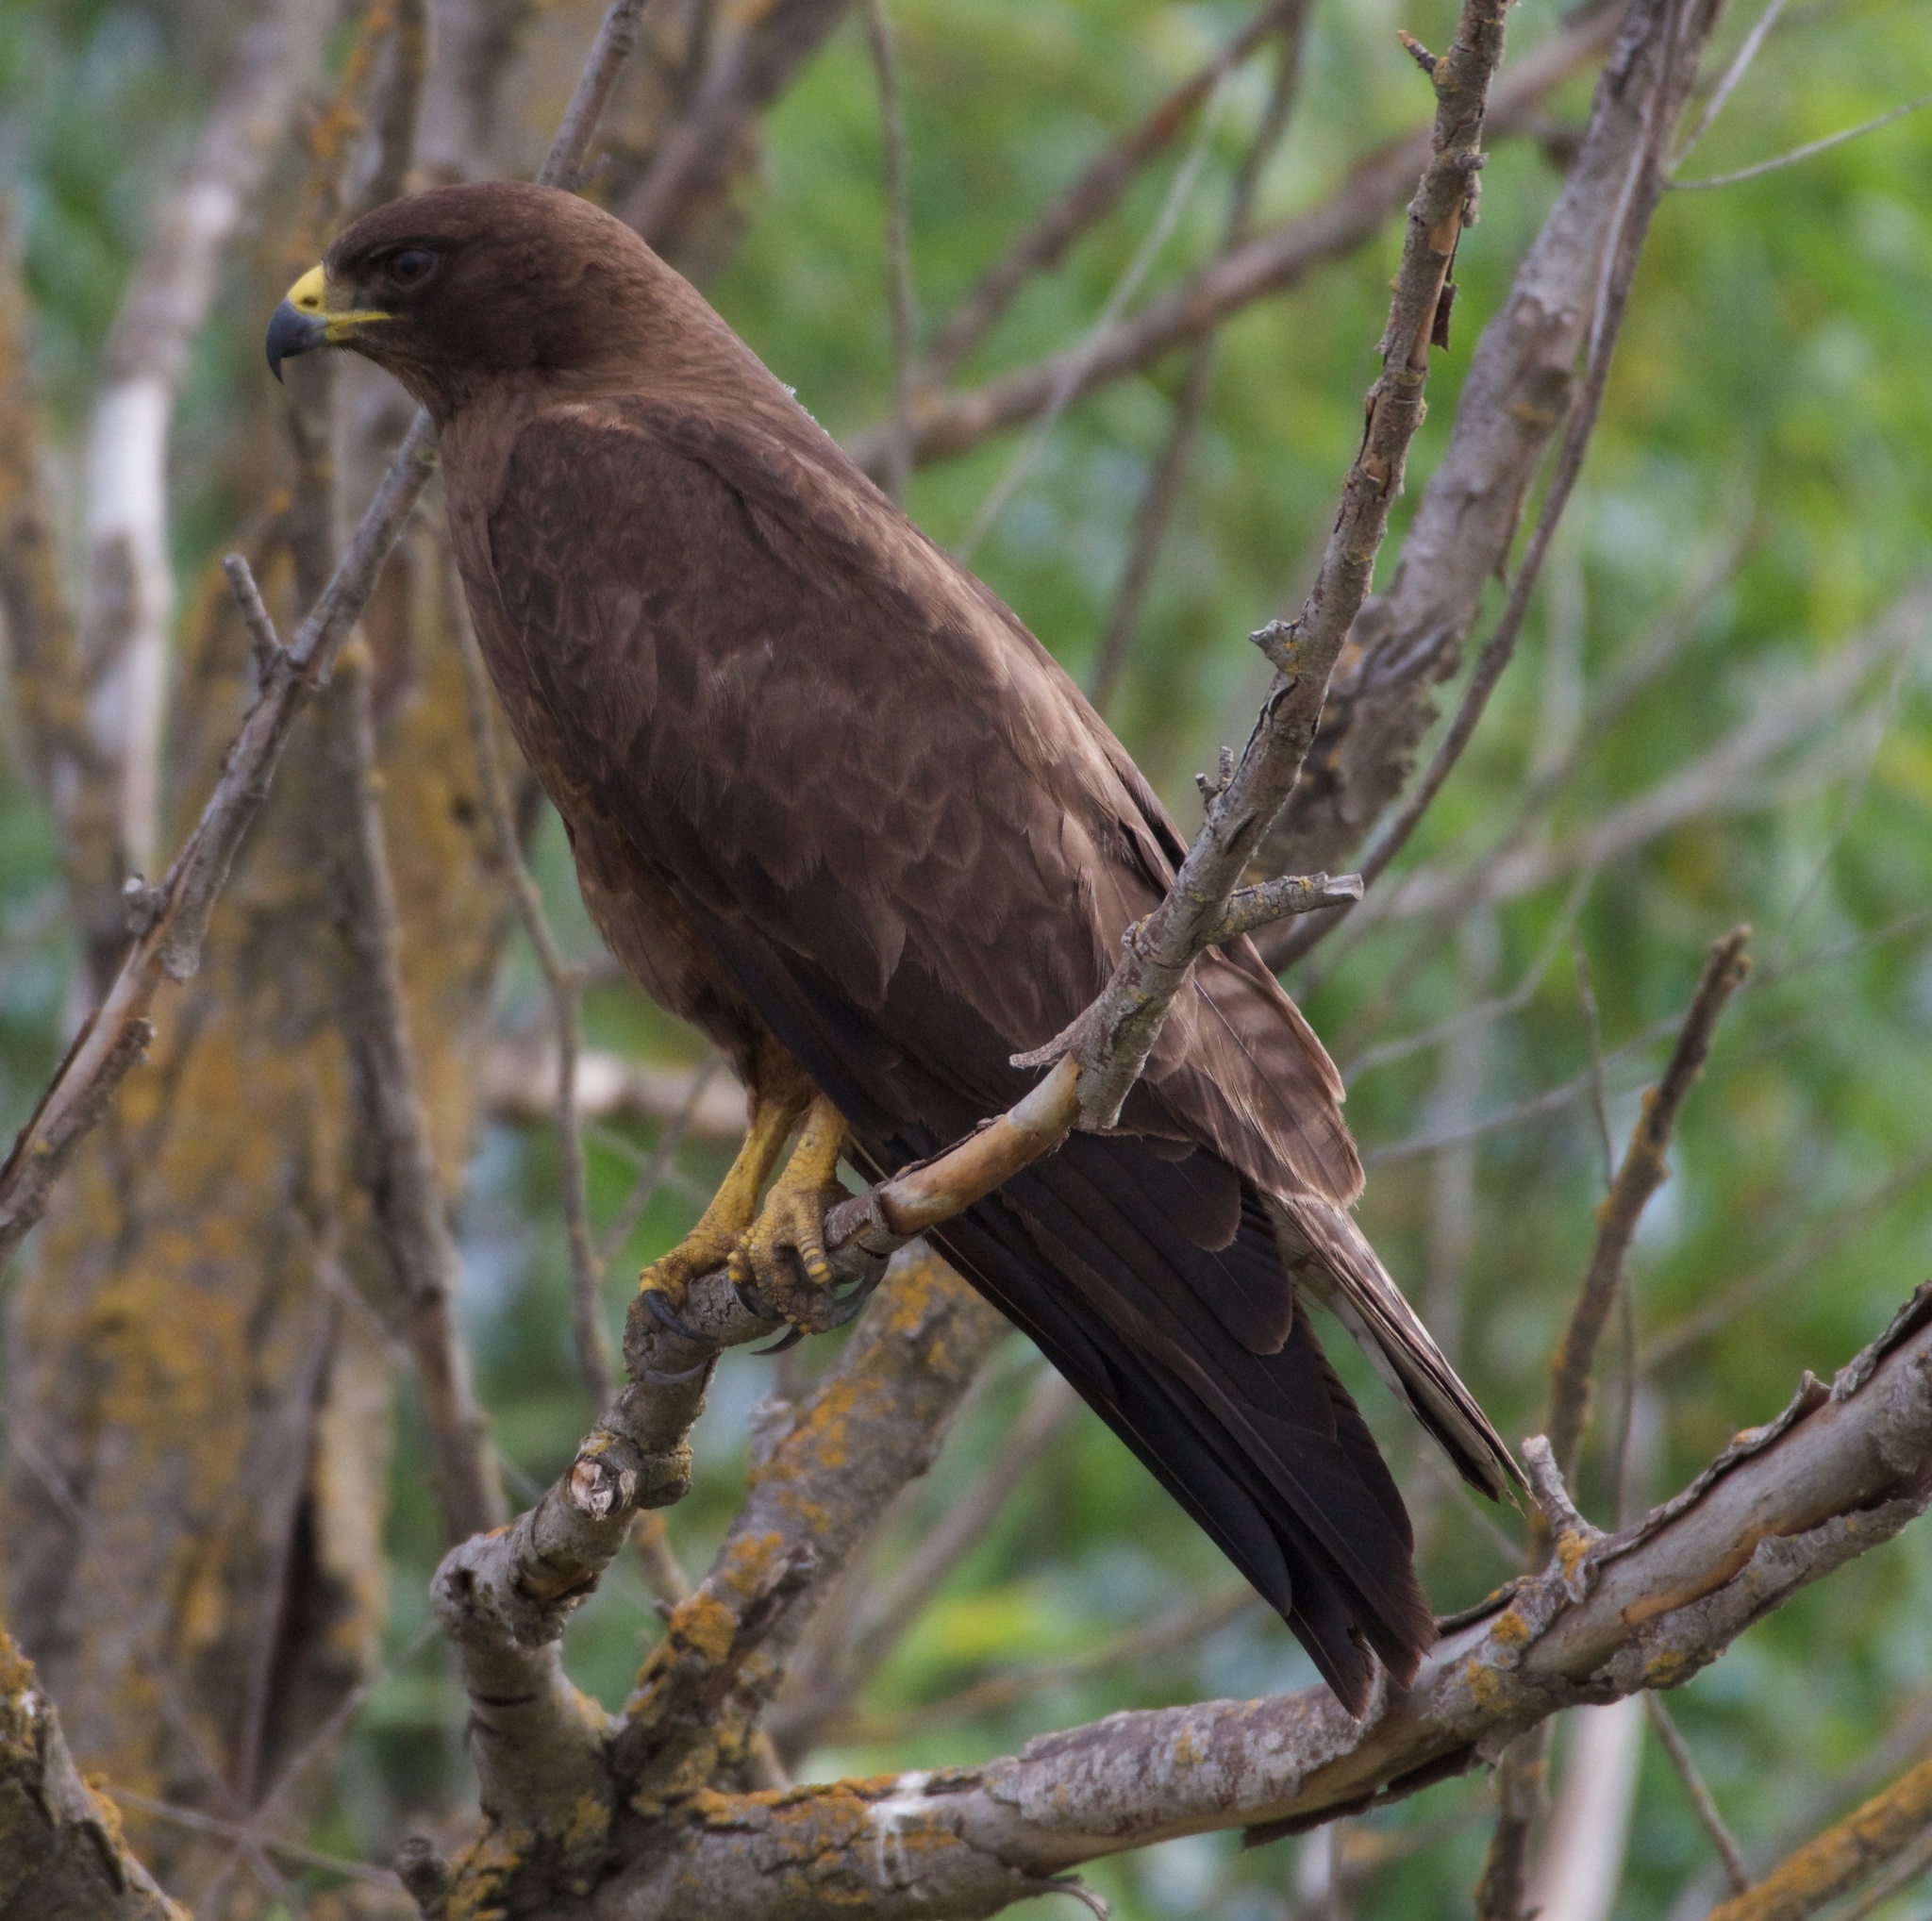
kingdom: Animalia
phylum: Chordata
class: Aves
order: Accipitriformes
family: Accipitridae
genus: Buteo
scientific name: Buteo swainsoni
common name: Swainson's hawk
